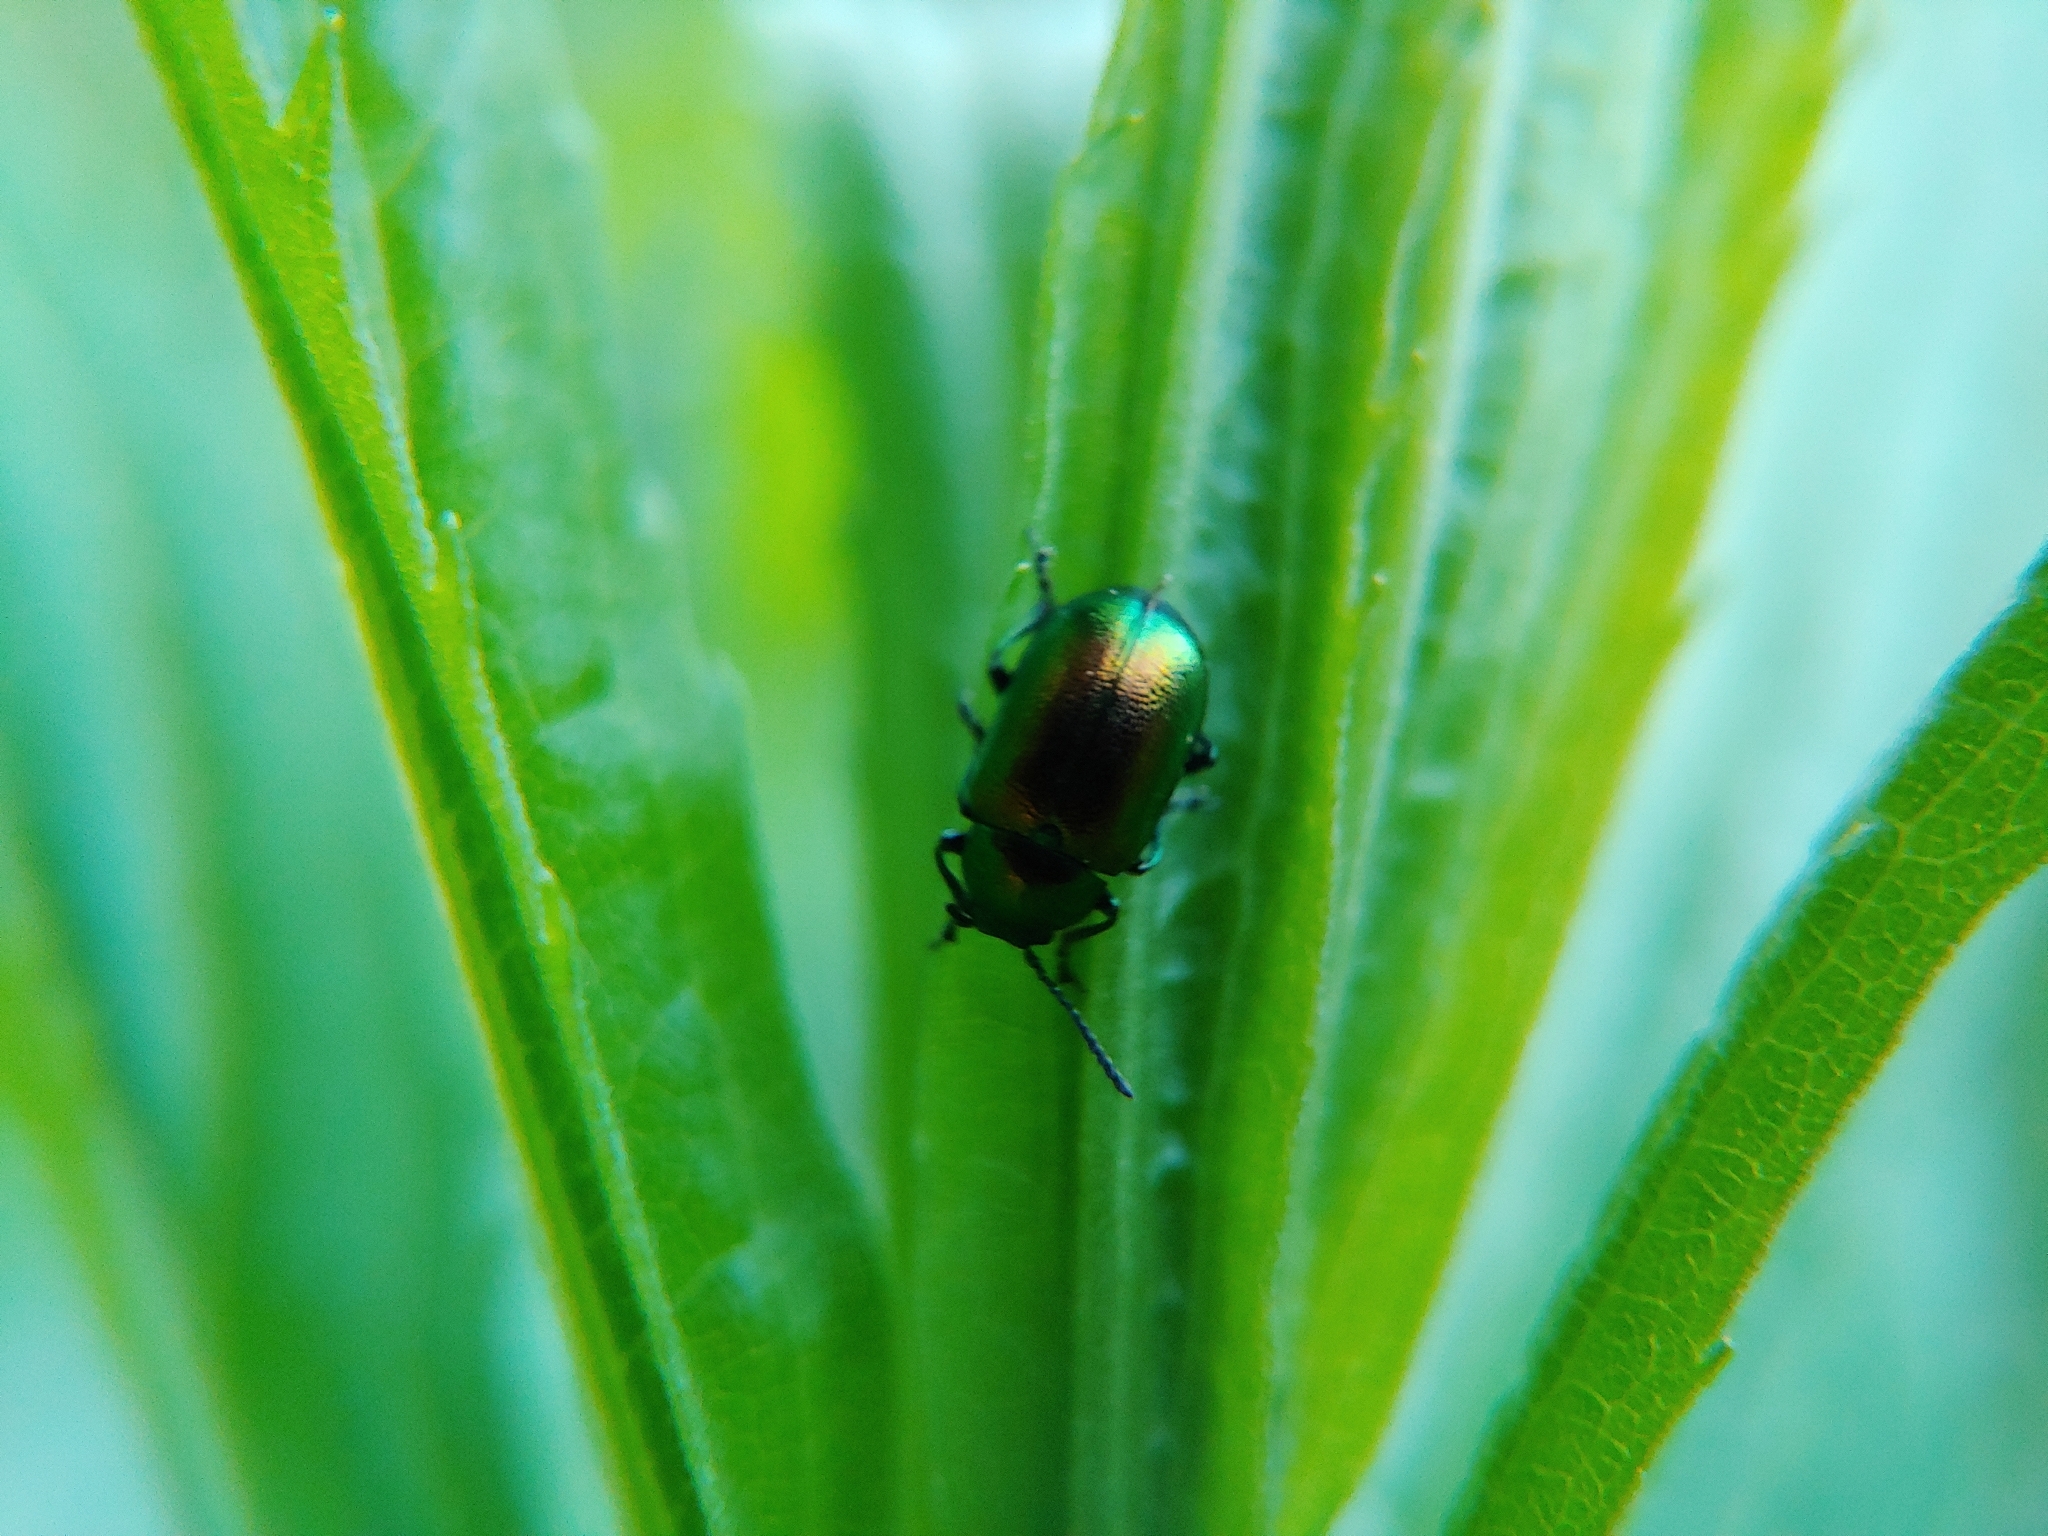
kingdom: Animalia
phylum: Arthropoda
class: Insecta
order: Coleoptera
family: Chrysomelidae
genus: Gastrophysa
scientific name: Gastrophysa viridula
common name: Green dock beetle
